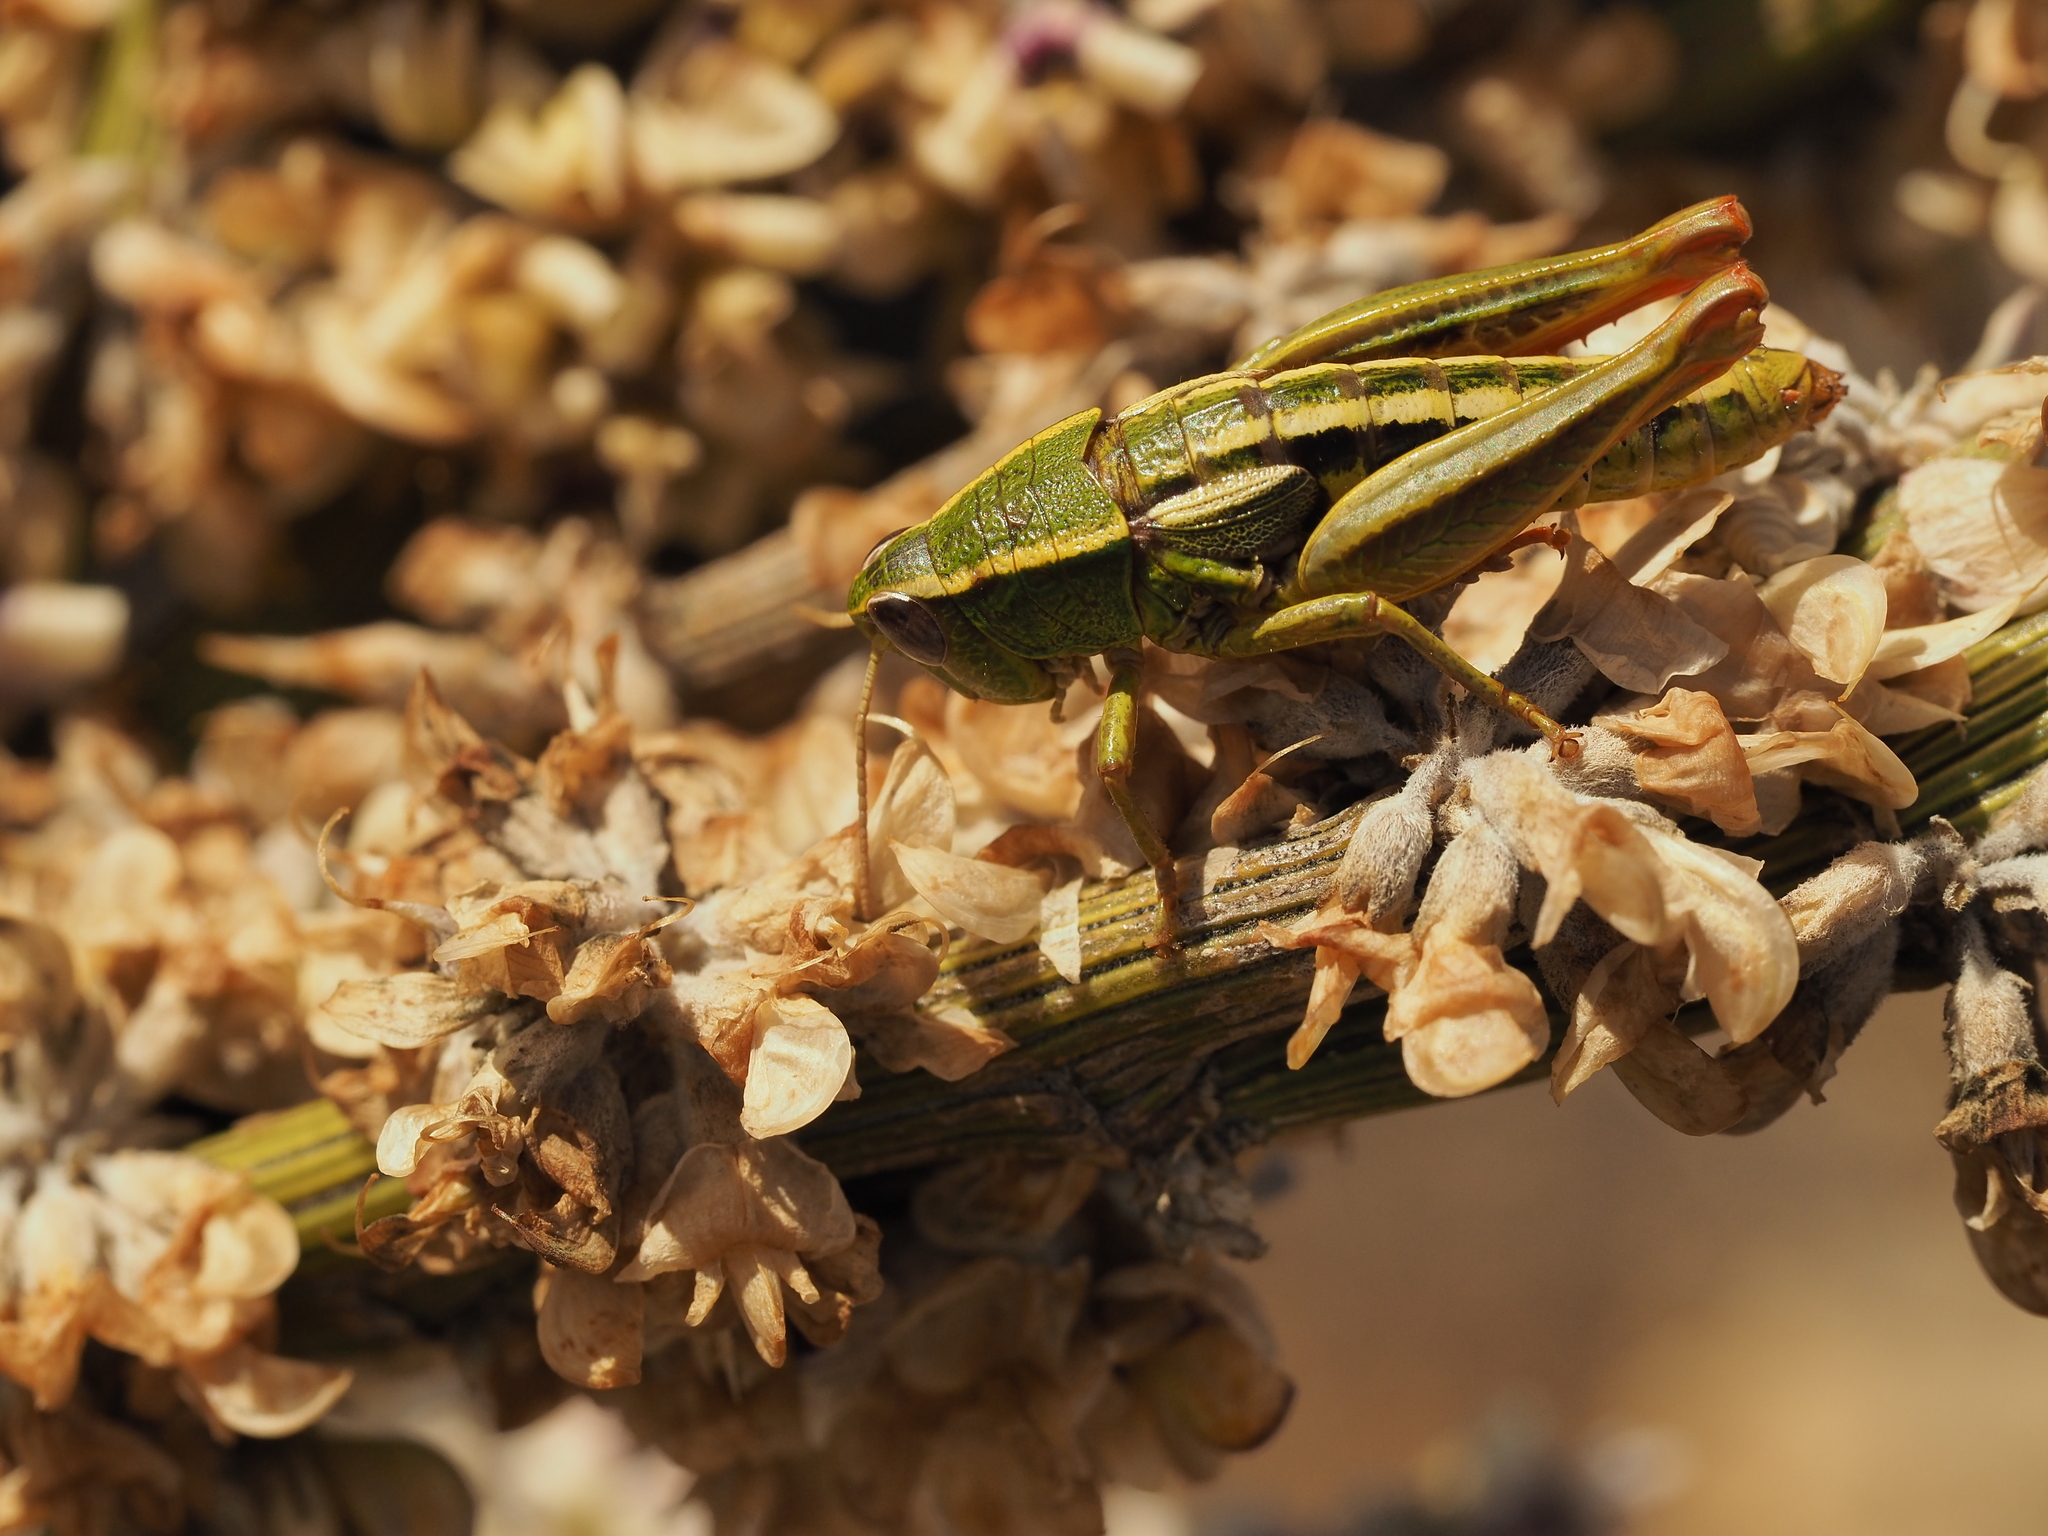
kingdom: Animalia
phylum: Arthropoda
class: Insecta
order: Orthoptera
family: Acrididae
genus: Sigaus
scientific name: Sigaus
